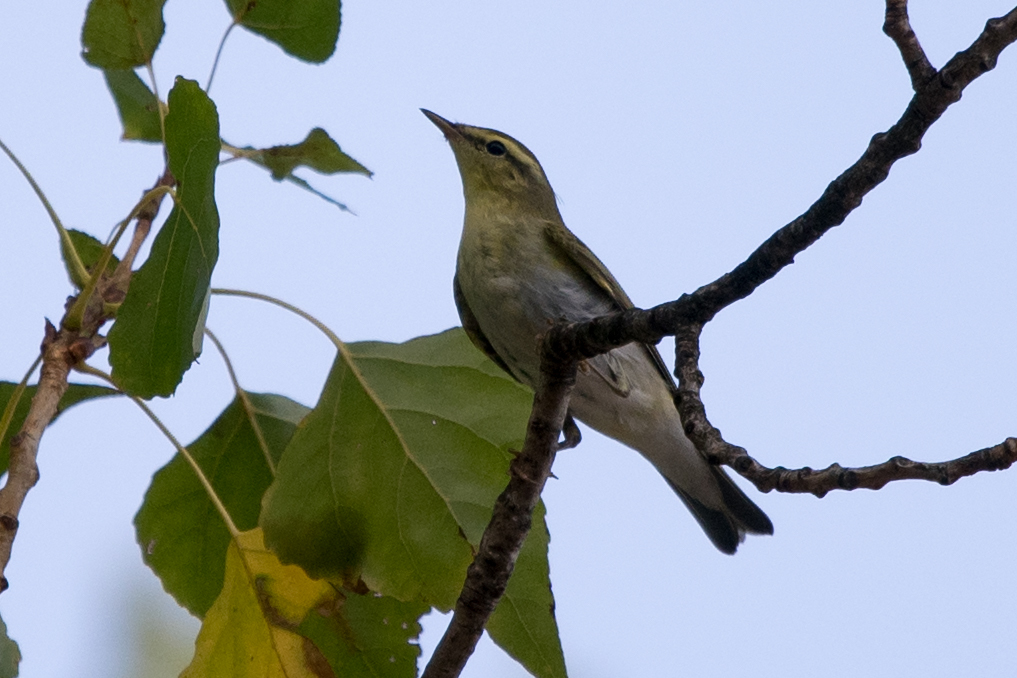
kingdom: Animalia
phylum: Chordata
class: Aves
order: Passeriformes
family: Phylloscopidae
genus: Phylloscopus
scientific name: Phylloscopus sibillatrix
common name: Wood warbler
